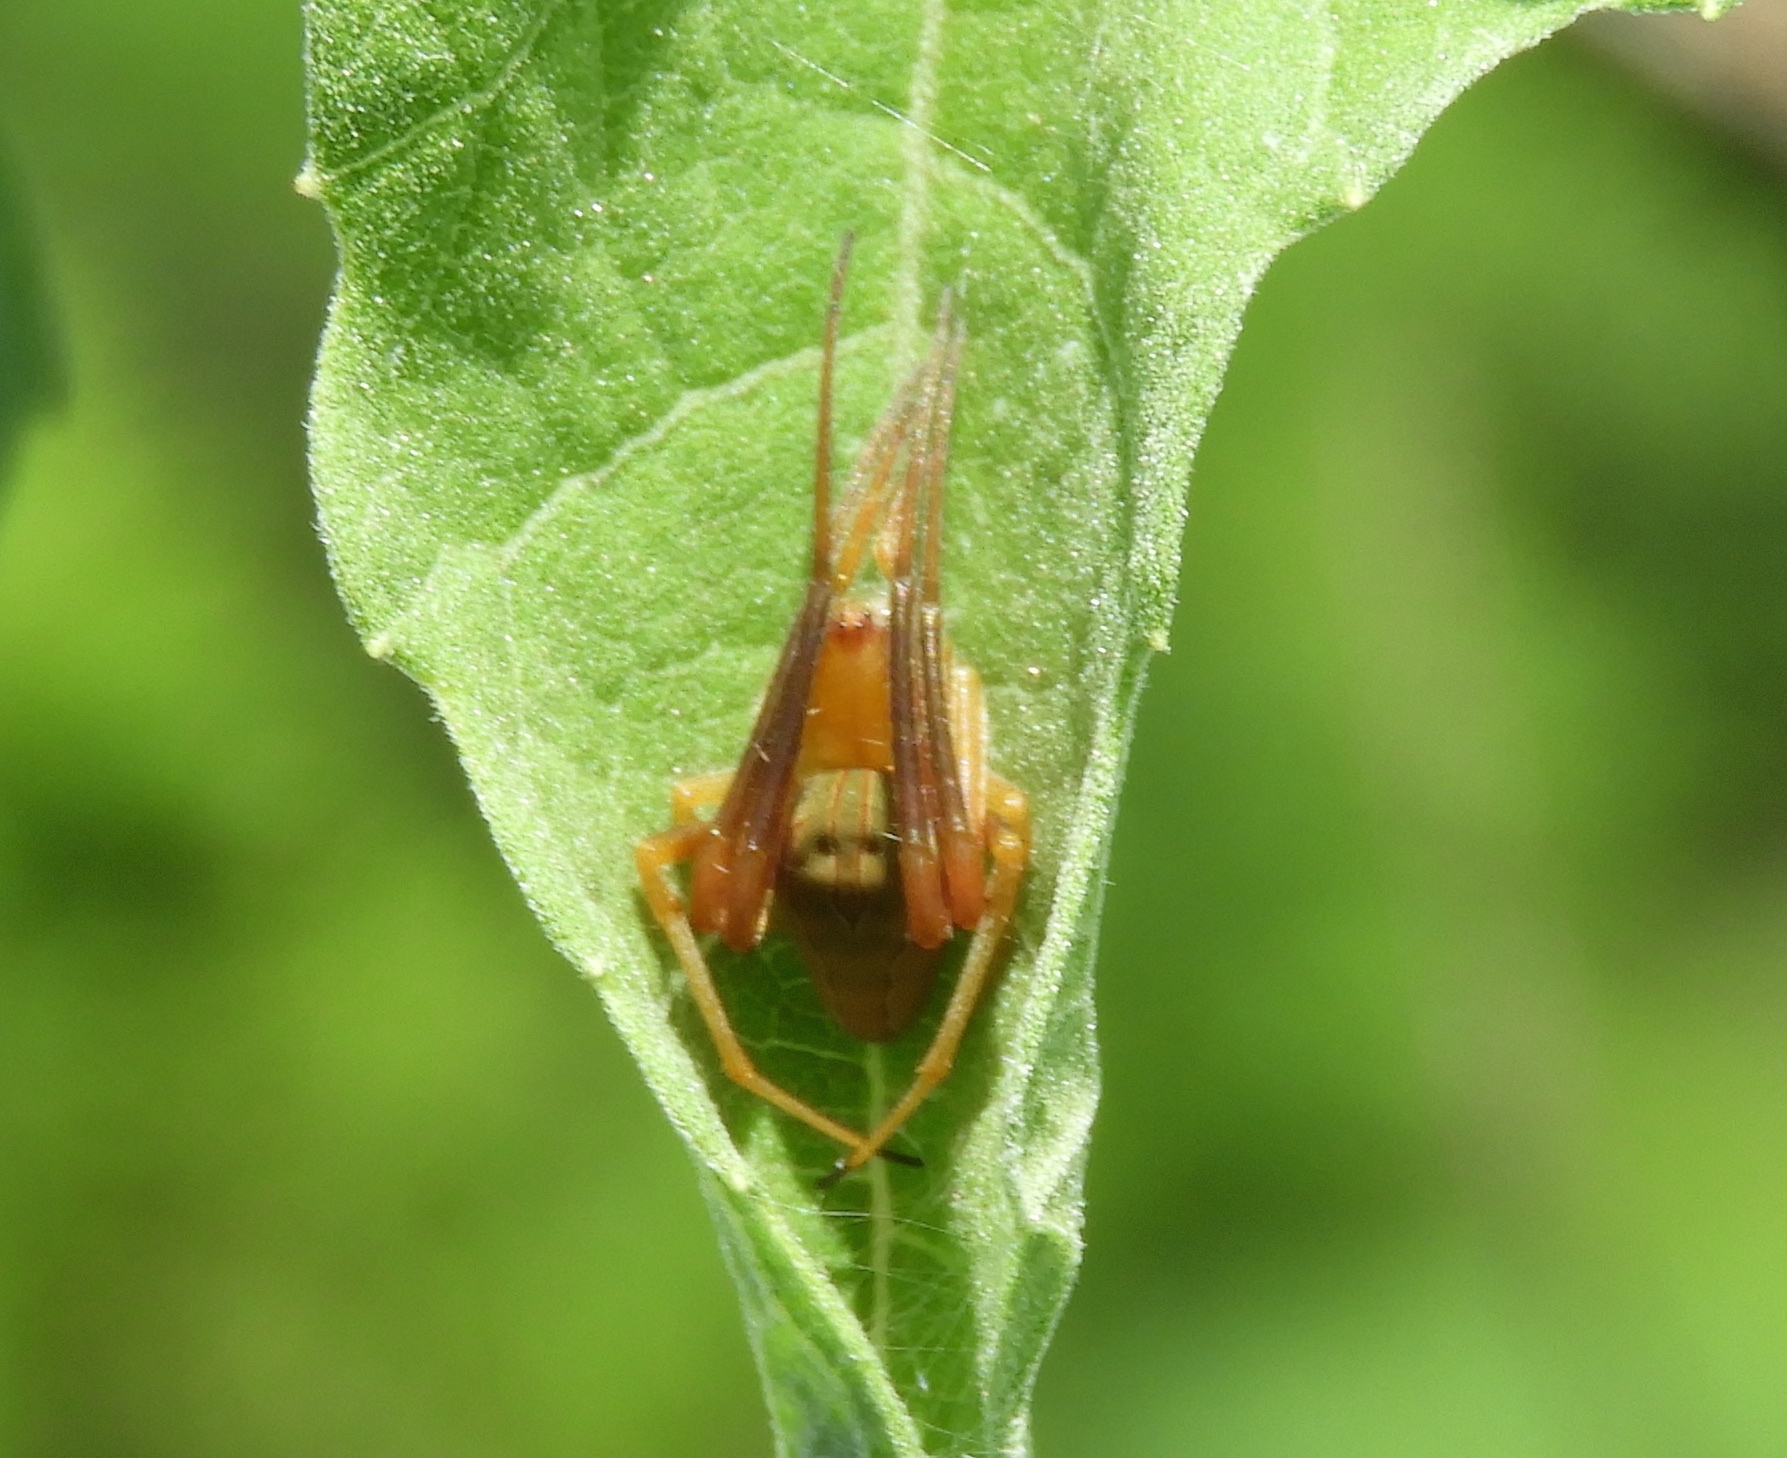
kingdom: Animalia
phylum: Arthropoda
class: Arachnida
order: Araneae
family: Araneidae
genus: Acacesia
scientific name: Acacesia
